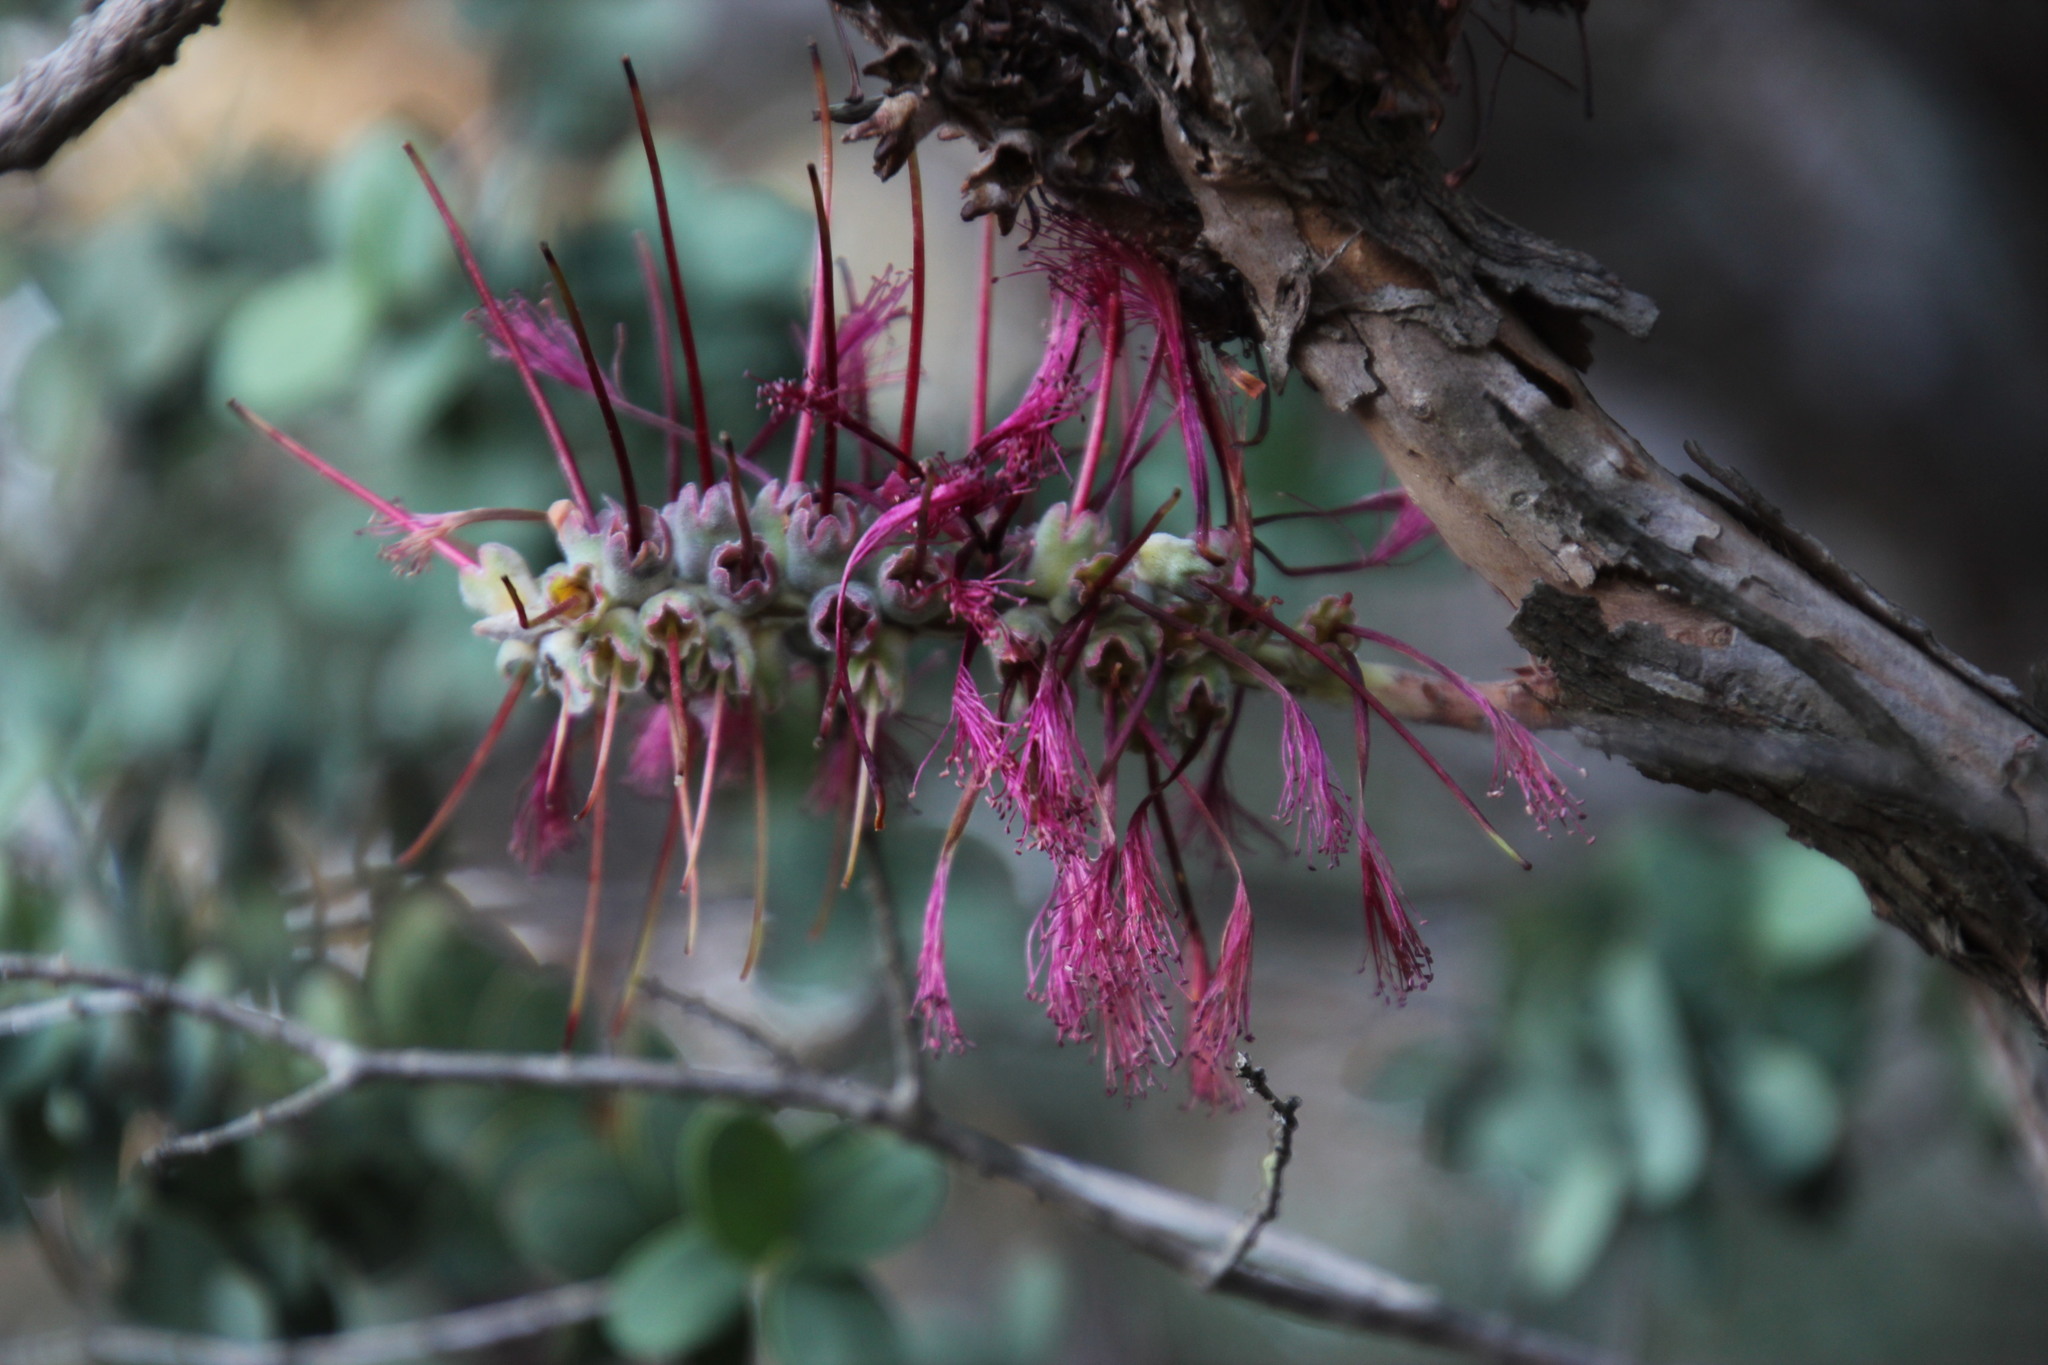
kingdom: Plantae
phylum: Tracheophyta
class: Magnoliopsida
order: Myrtales
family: Myrtaceae
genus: Melaleuca
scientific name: Melaleuca elliptica
